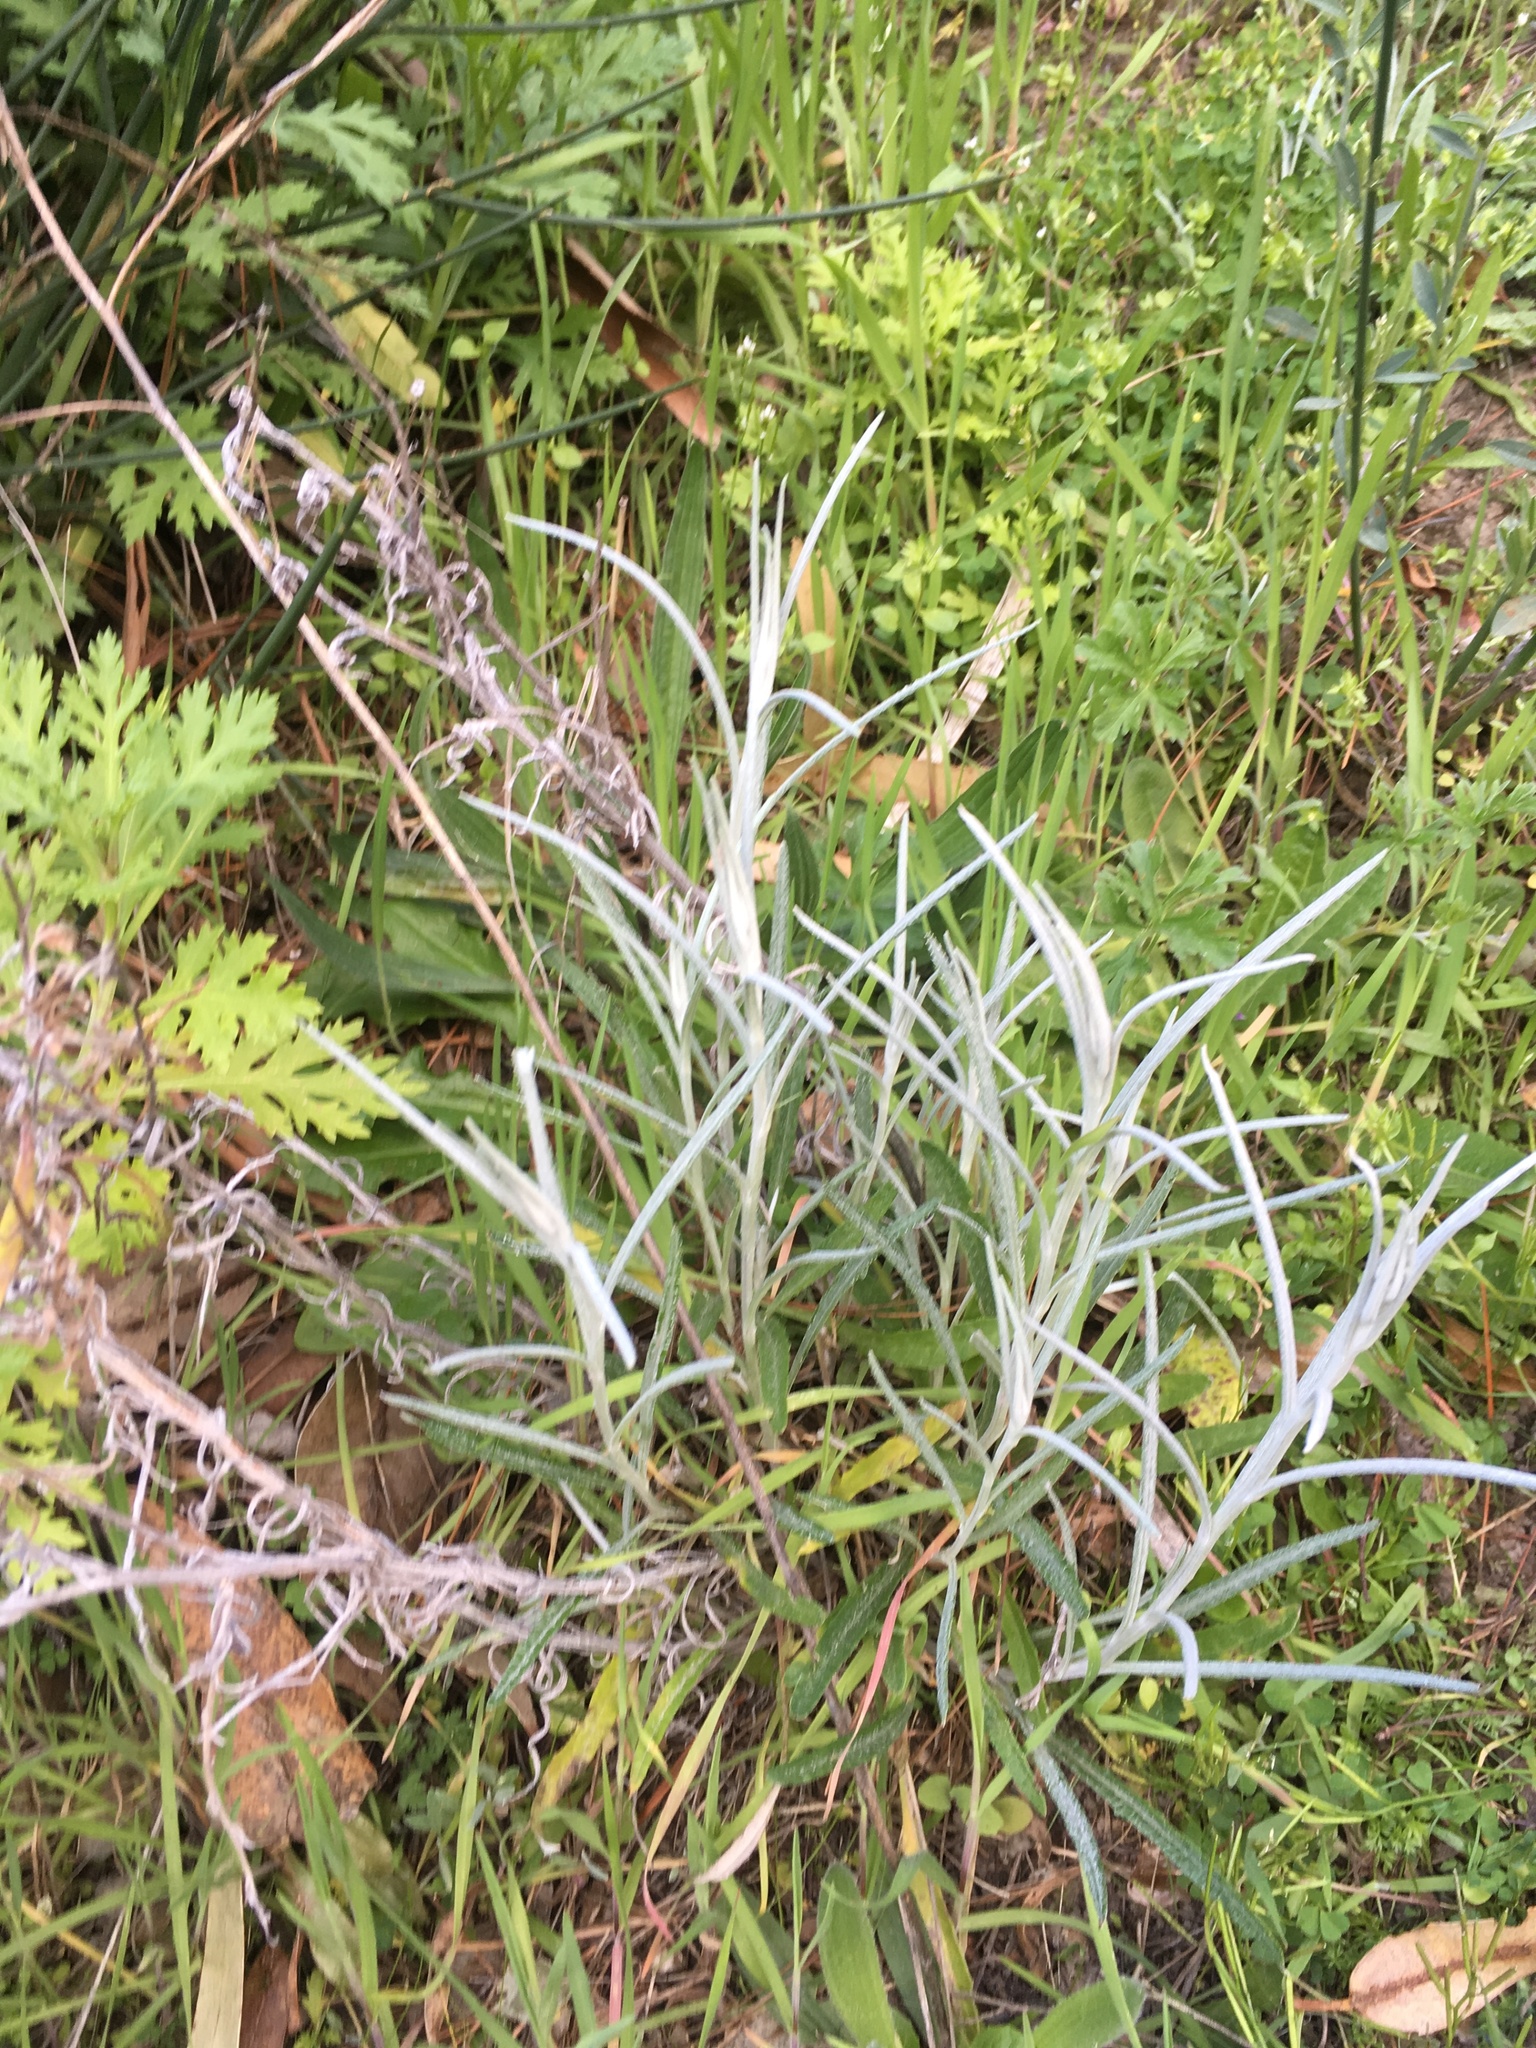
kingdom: Plantae
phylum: Tracheophyta
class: Magnoliopsida
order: Asterales
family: Asteraceae
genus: Senecio
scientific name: Senecio quadridentatus
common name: Cotton fireweed
